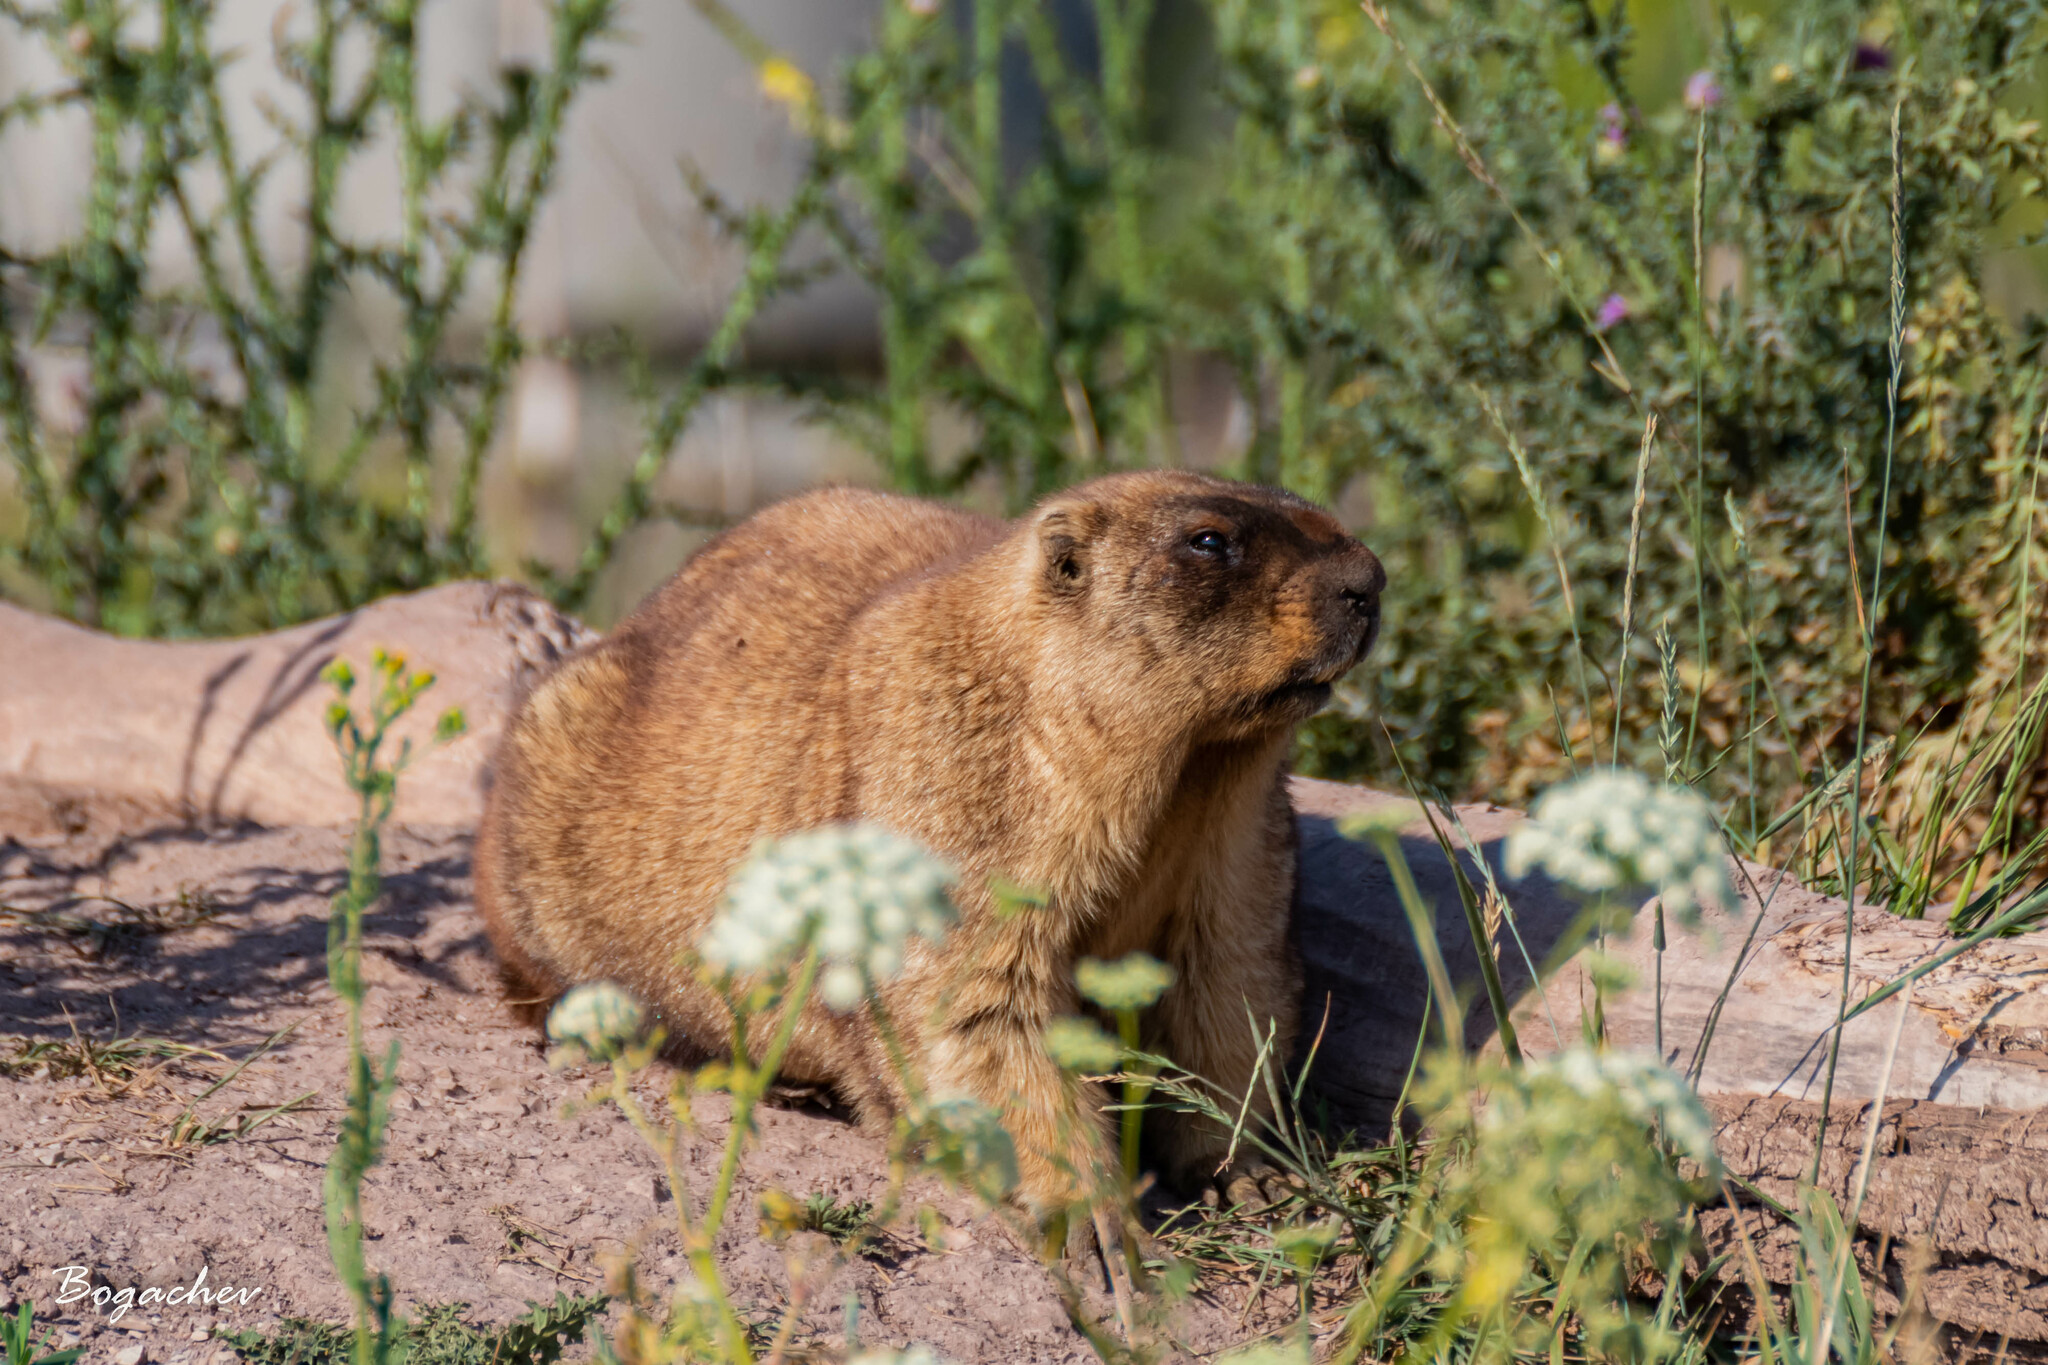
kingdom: Animalia
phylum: Chordata
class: Mammalia
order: Rodentia
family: Sciuridae
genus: Marmota
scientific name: Marmota bobak
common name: Bobak marmot
